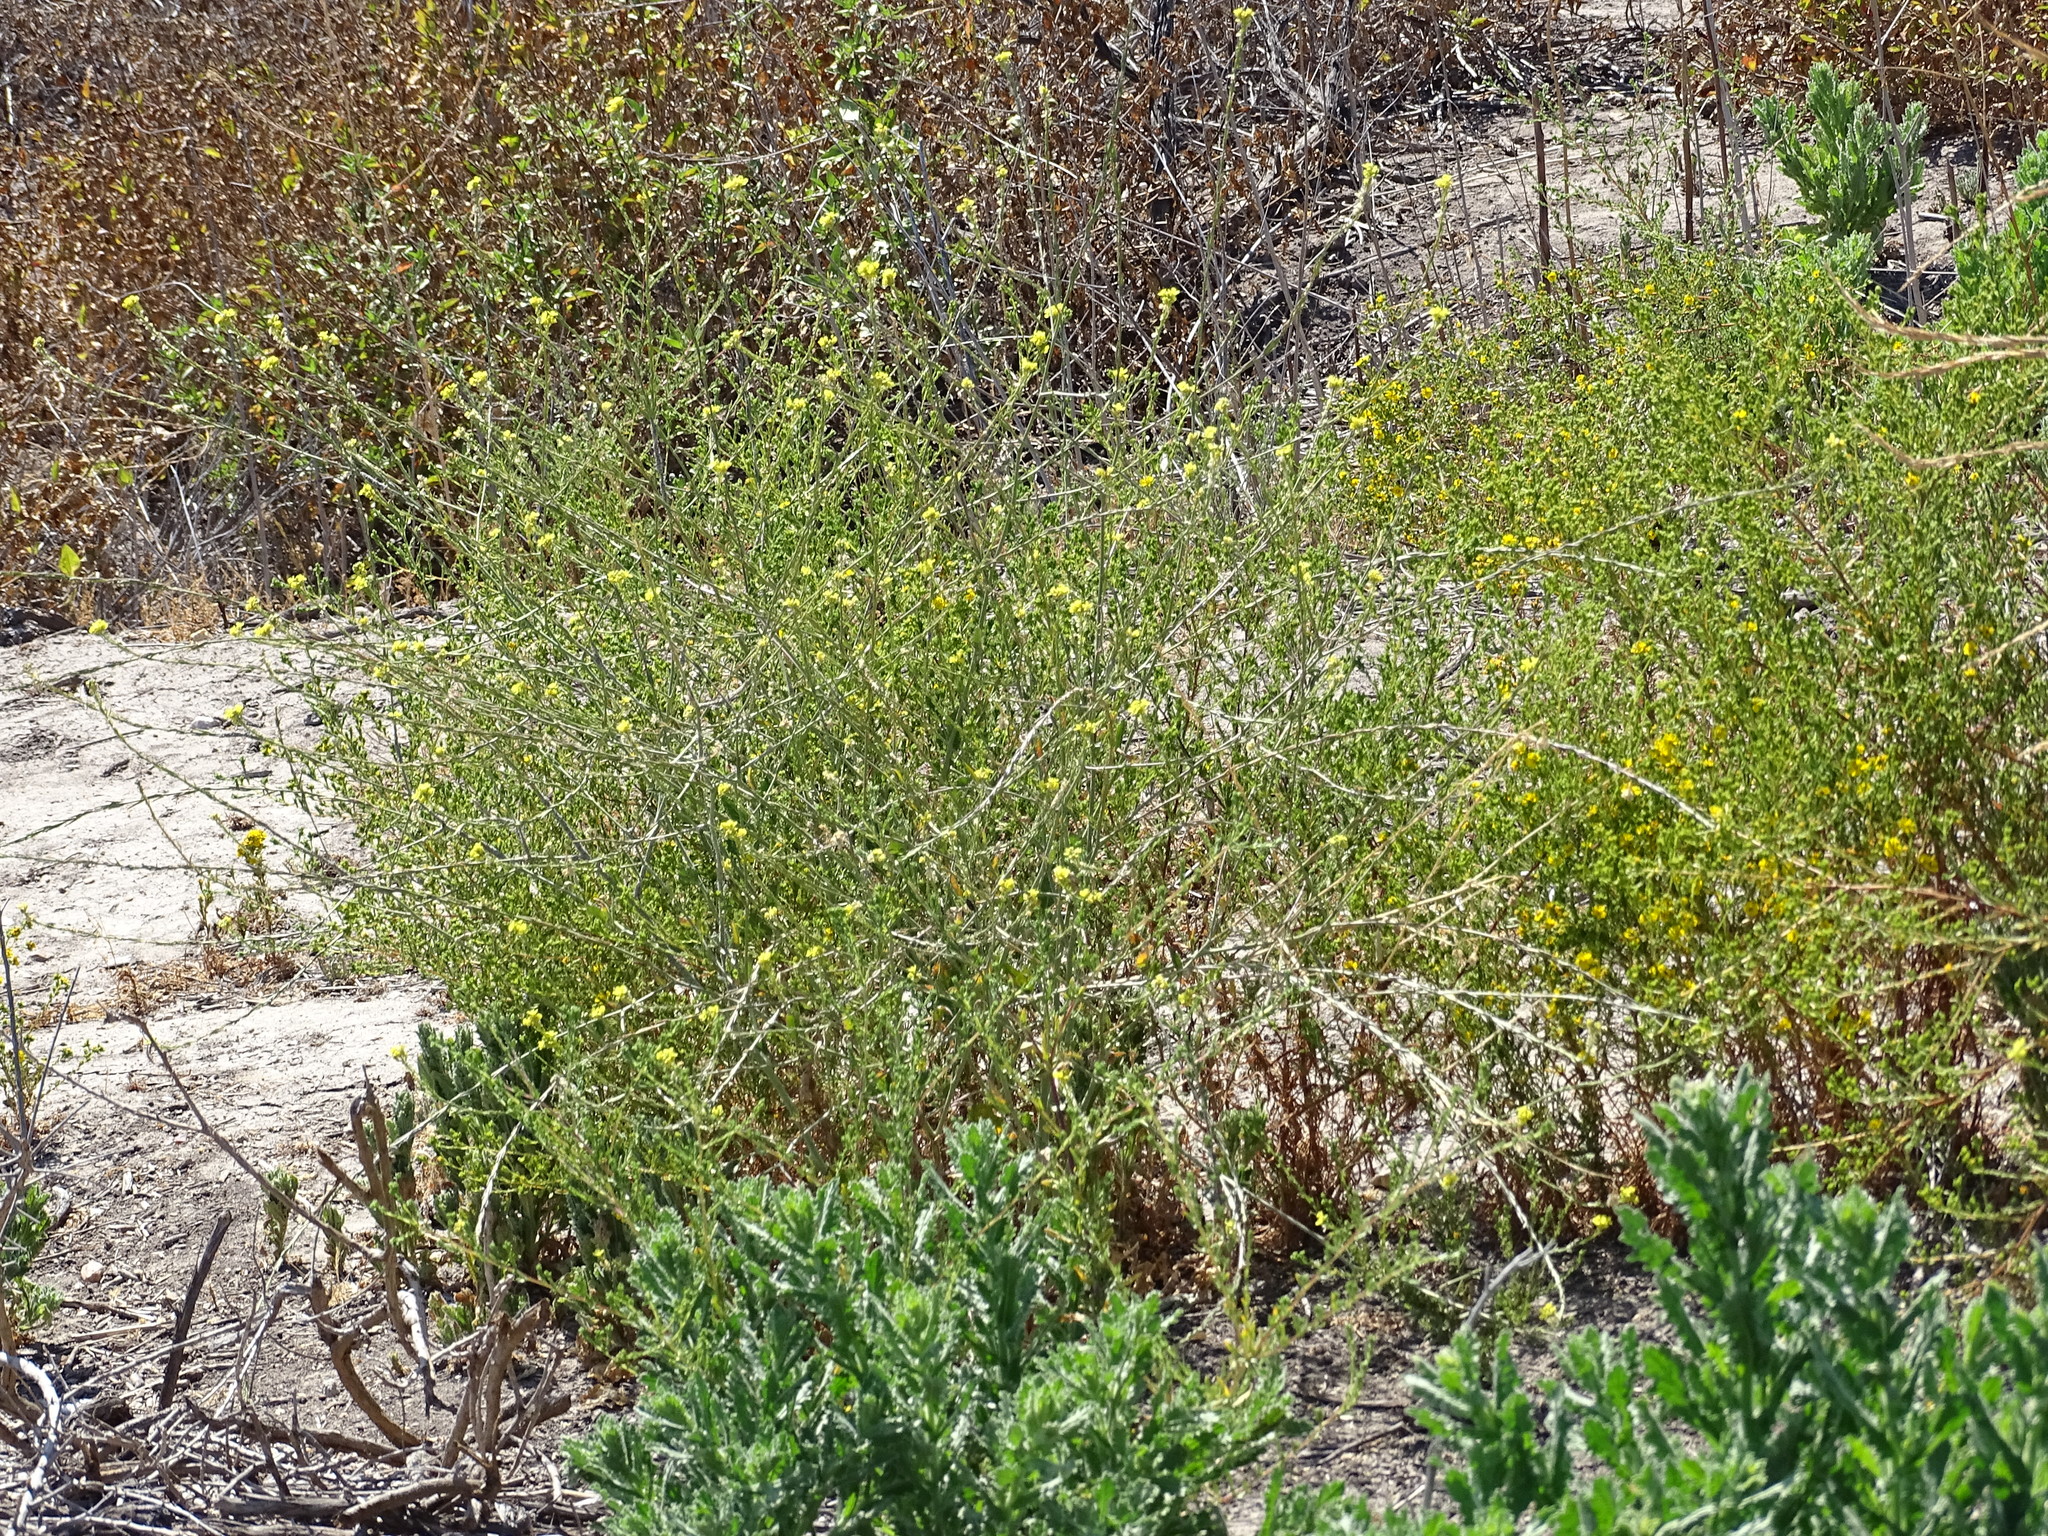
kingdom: Plantae
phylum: Tracheophyta
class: Magnoliopsida
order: Brassicales
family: Brassicaceae
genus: Hirschfeldia
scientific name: Hirschfeldia incana
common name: Hoary mustard
